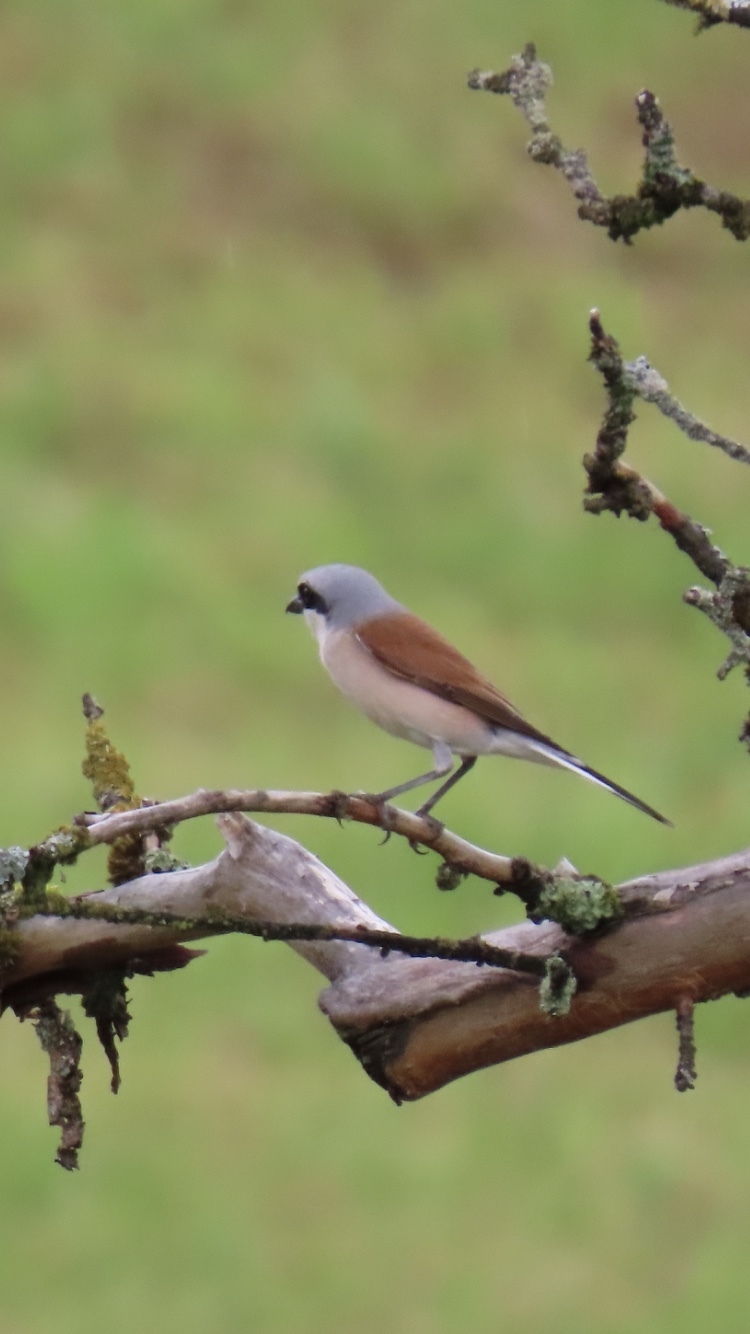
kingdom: Animalia
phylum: Chordata
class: Aves
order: Passeriformes
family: Laniidae
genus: Lanius
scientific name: Lanius collurio
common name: Red-backed shrike
